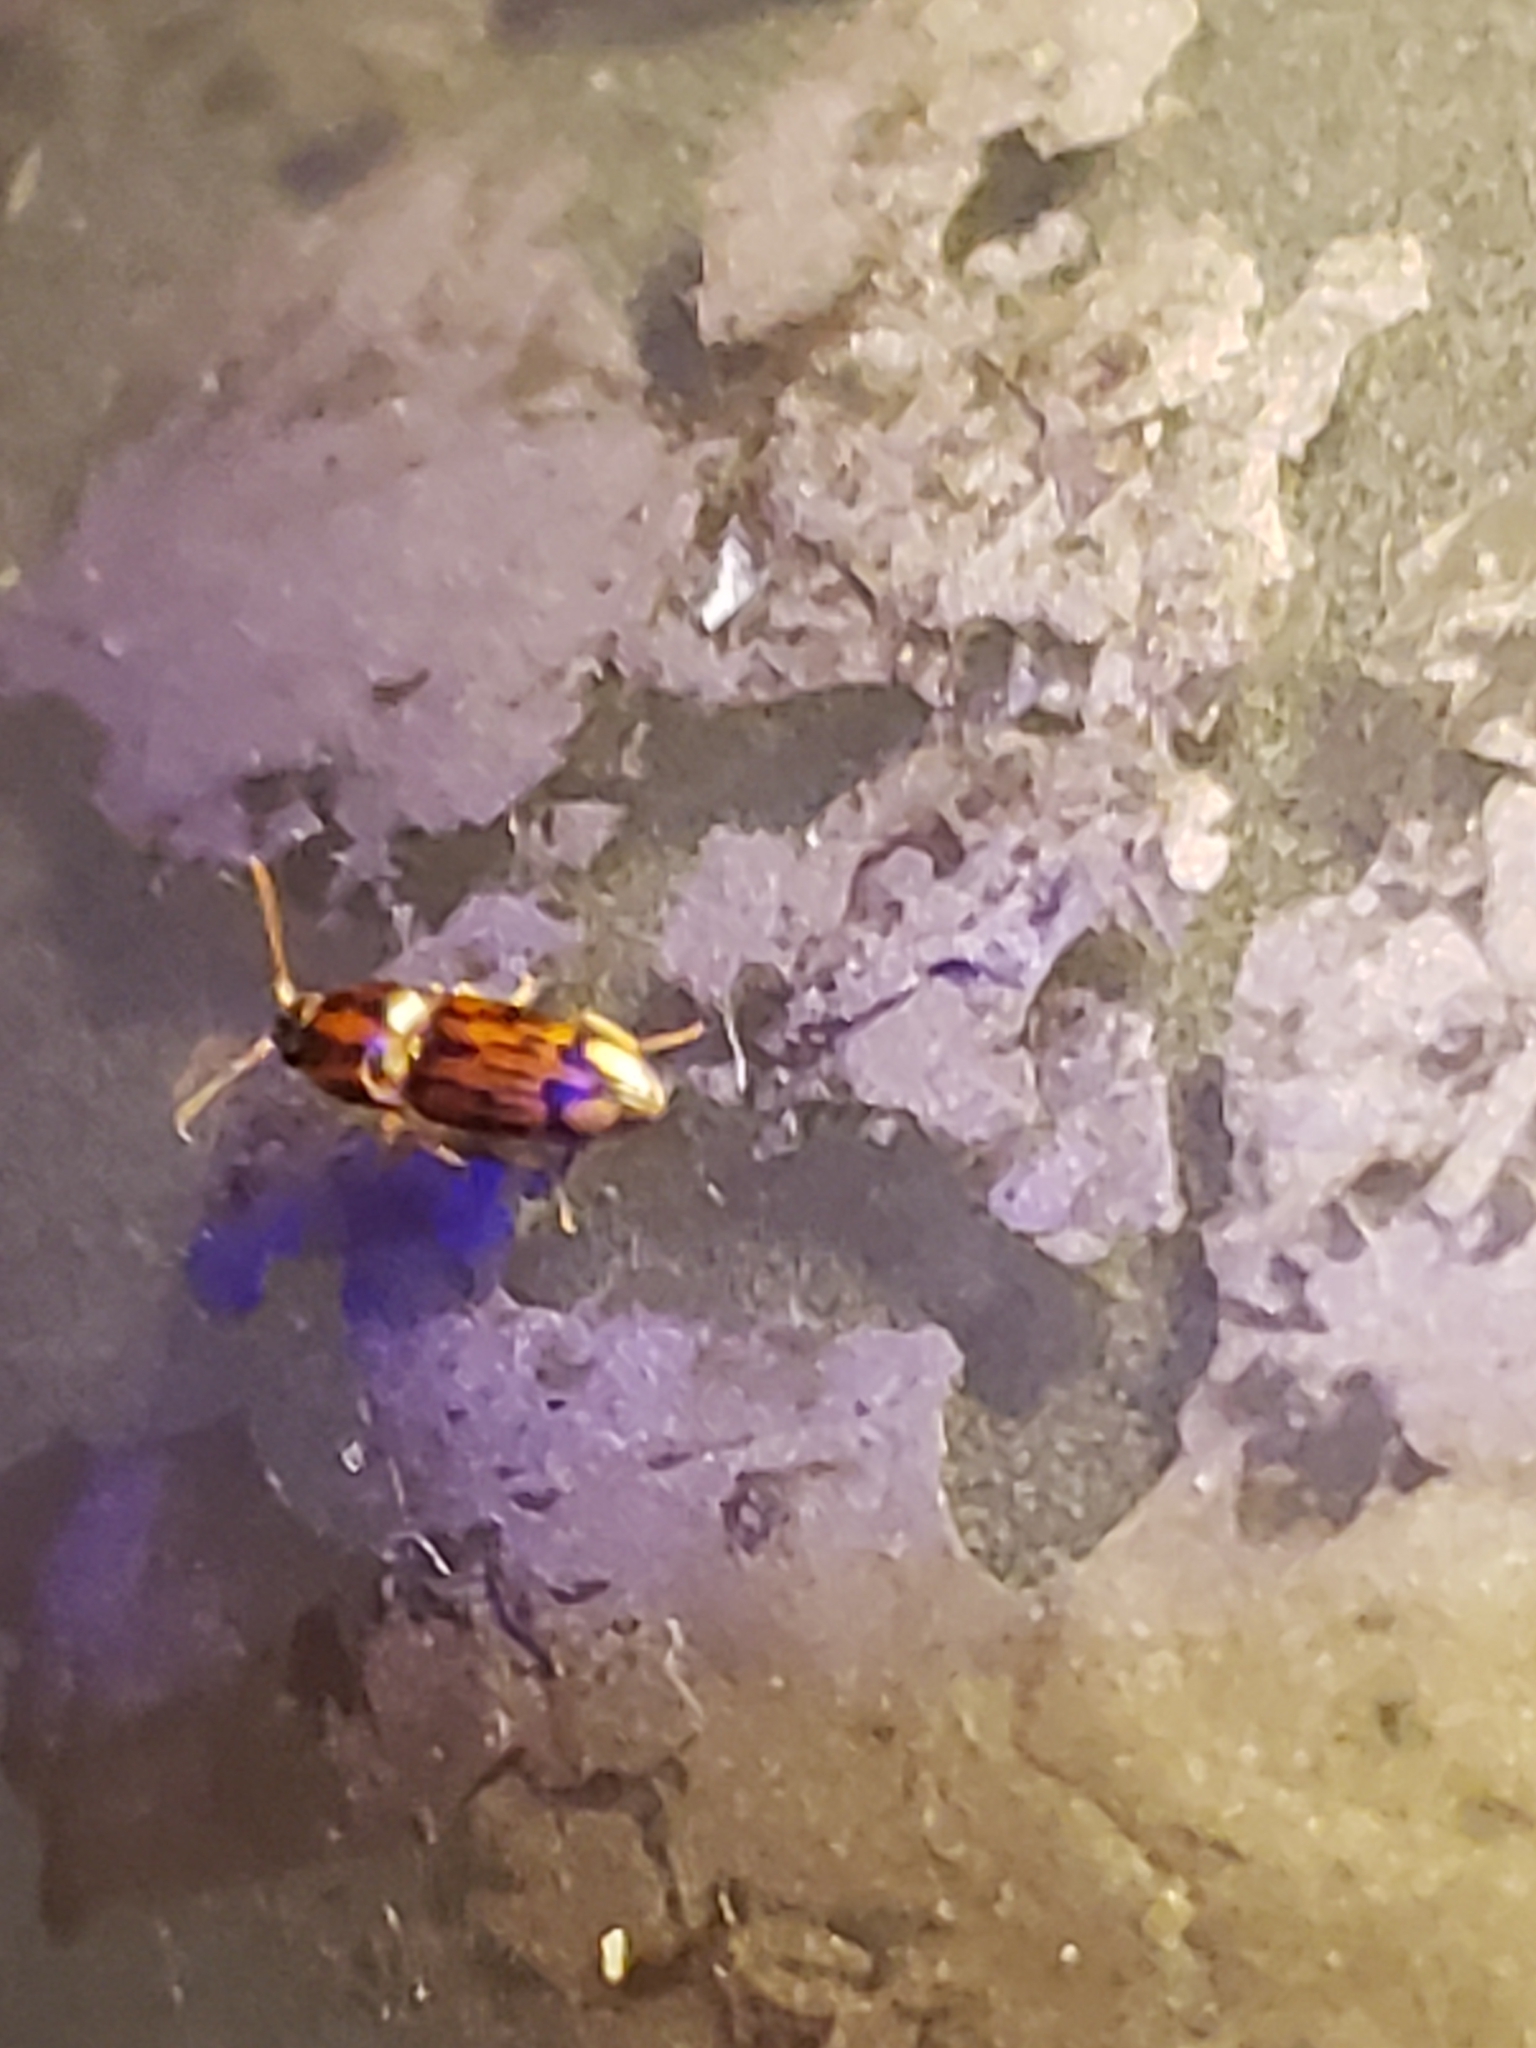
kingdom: Animalia
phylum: Arthropoda
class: Insecta
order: Coleoptera
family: Elateridae
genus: Monocrepidius
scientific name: Monocrepidius bellus
